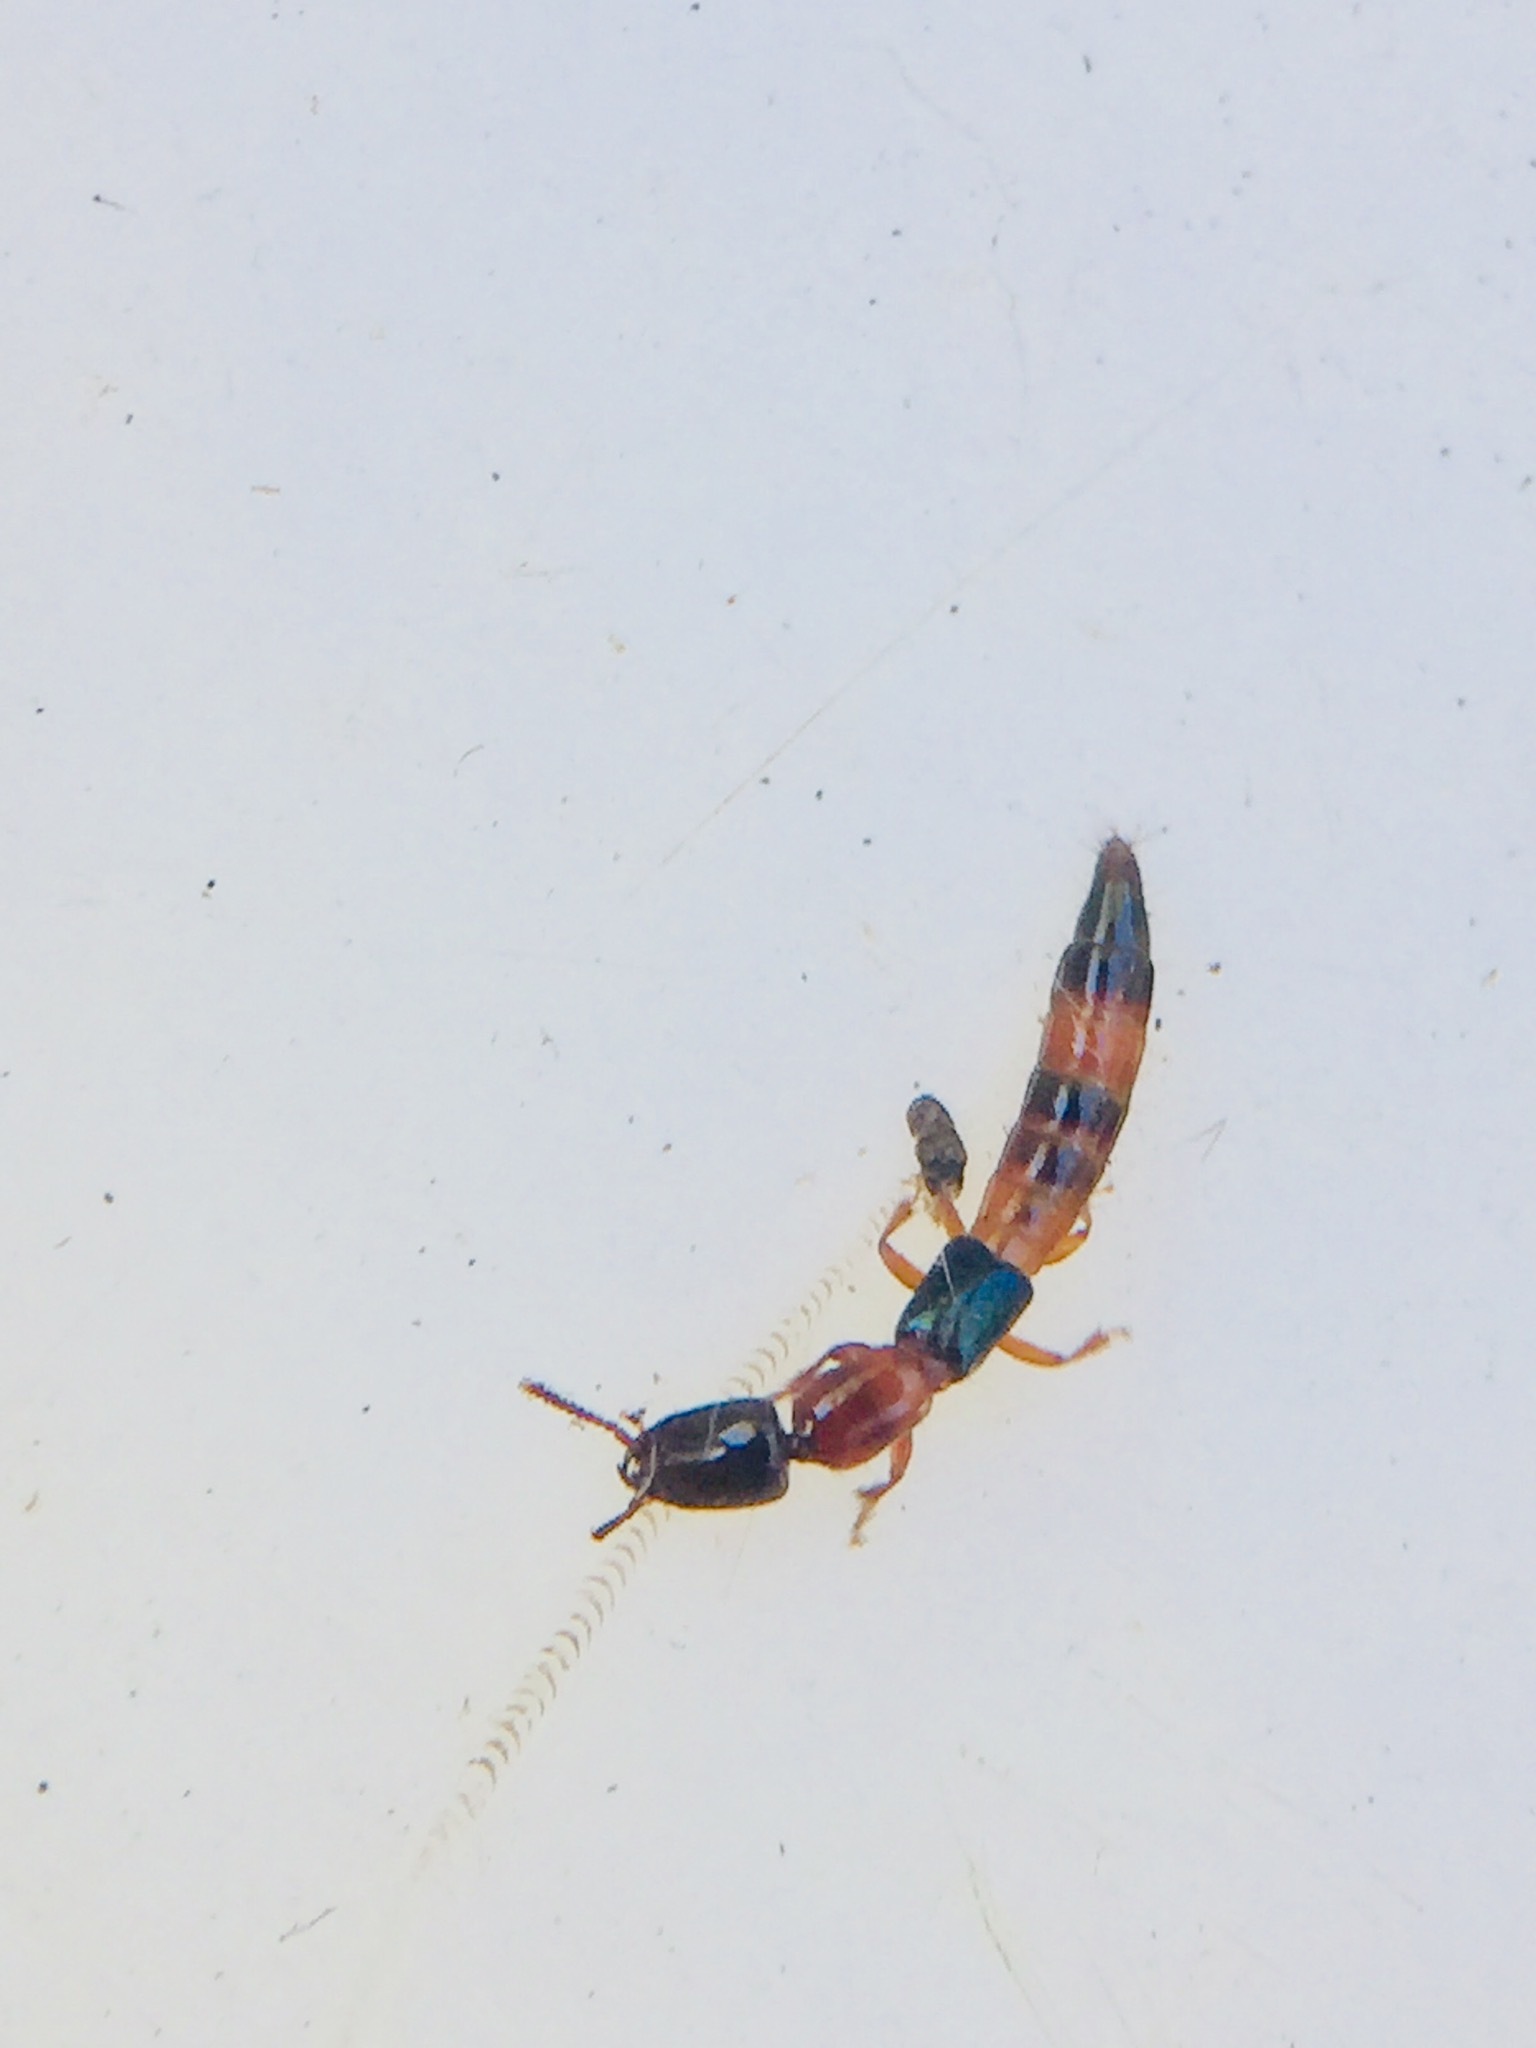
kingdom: Animalia
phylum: Arthropoda
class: Insecta
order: Coleoptera
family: Staphylinidae
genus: Australinus
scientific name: Australinus cyaneipennis
